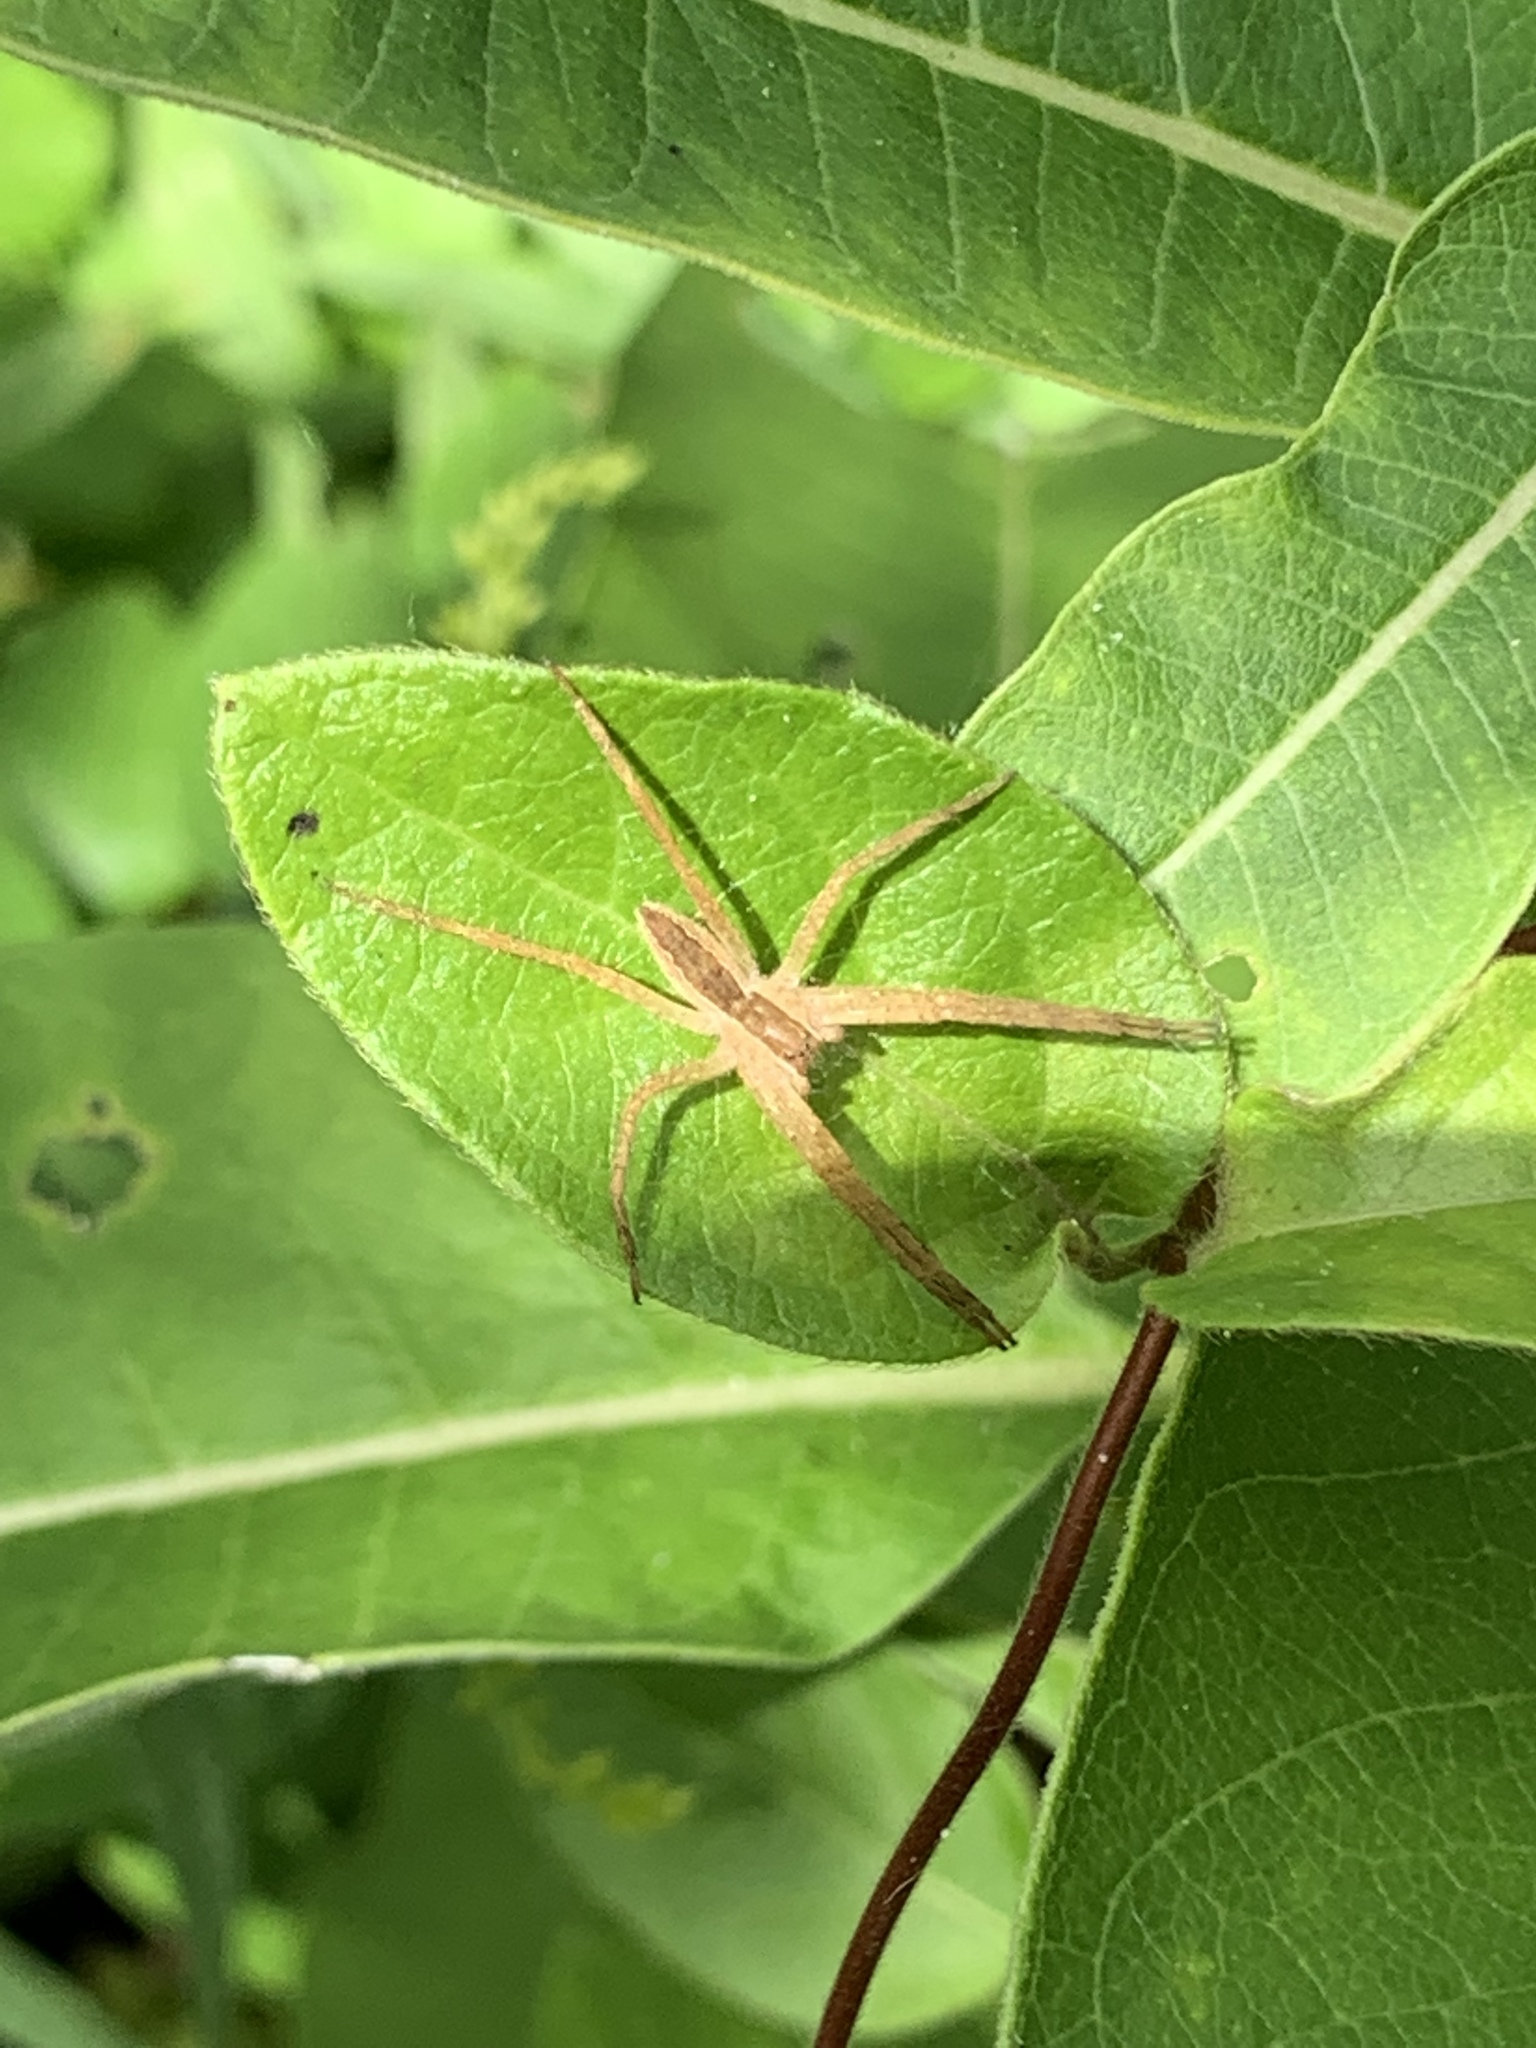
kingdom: Animalia
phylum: Arthropoda
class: Arachnida
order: Araneae
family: Pisauridae
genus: Pisaurina
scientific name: Pisaurina mira
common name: American nursery web spider
